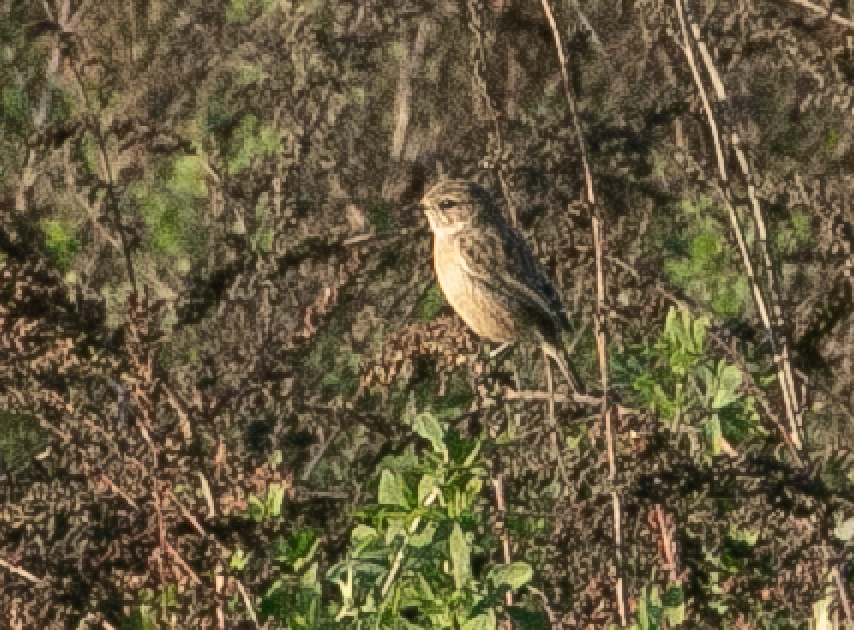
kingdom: Animalia
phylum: Chordata
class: Aves
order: Passeriformes
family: Muscicapidae
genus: Saxicola
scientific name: Saxicola rubicola
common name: European stonechat
